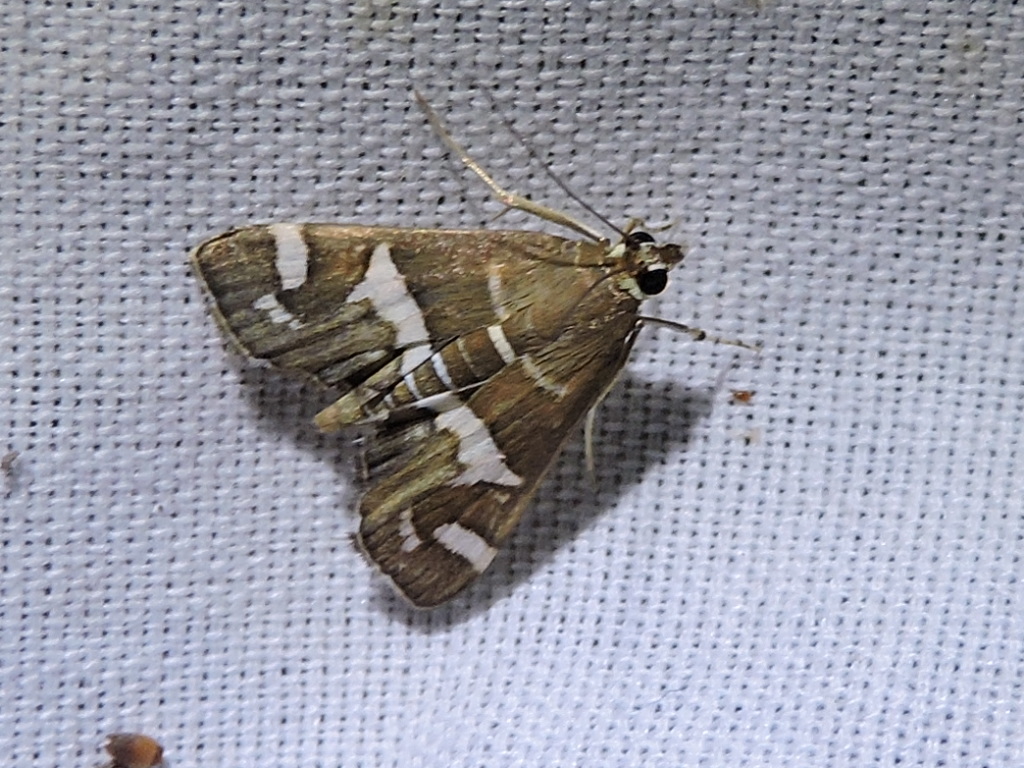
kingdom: Animalia
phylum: Arthropoda
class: Insecta
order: Lepidoptera
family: Crambidae
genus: Spoladea
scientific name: Spoladea recurvalis
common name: Beet webworm moth
